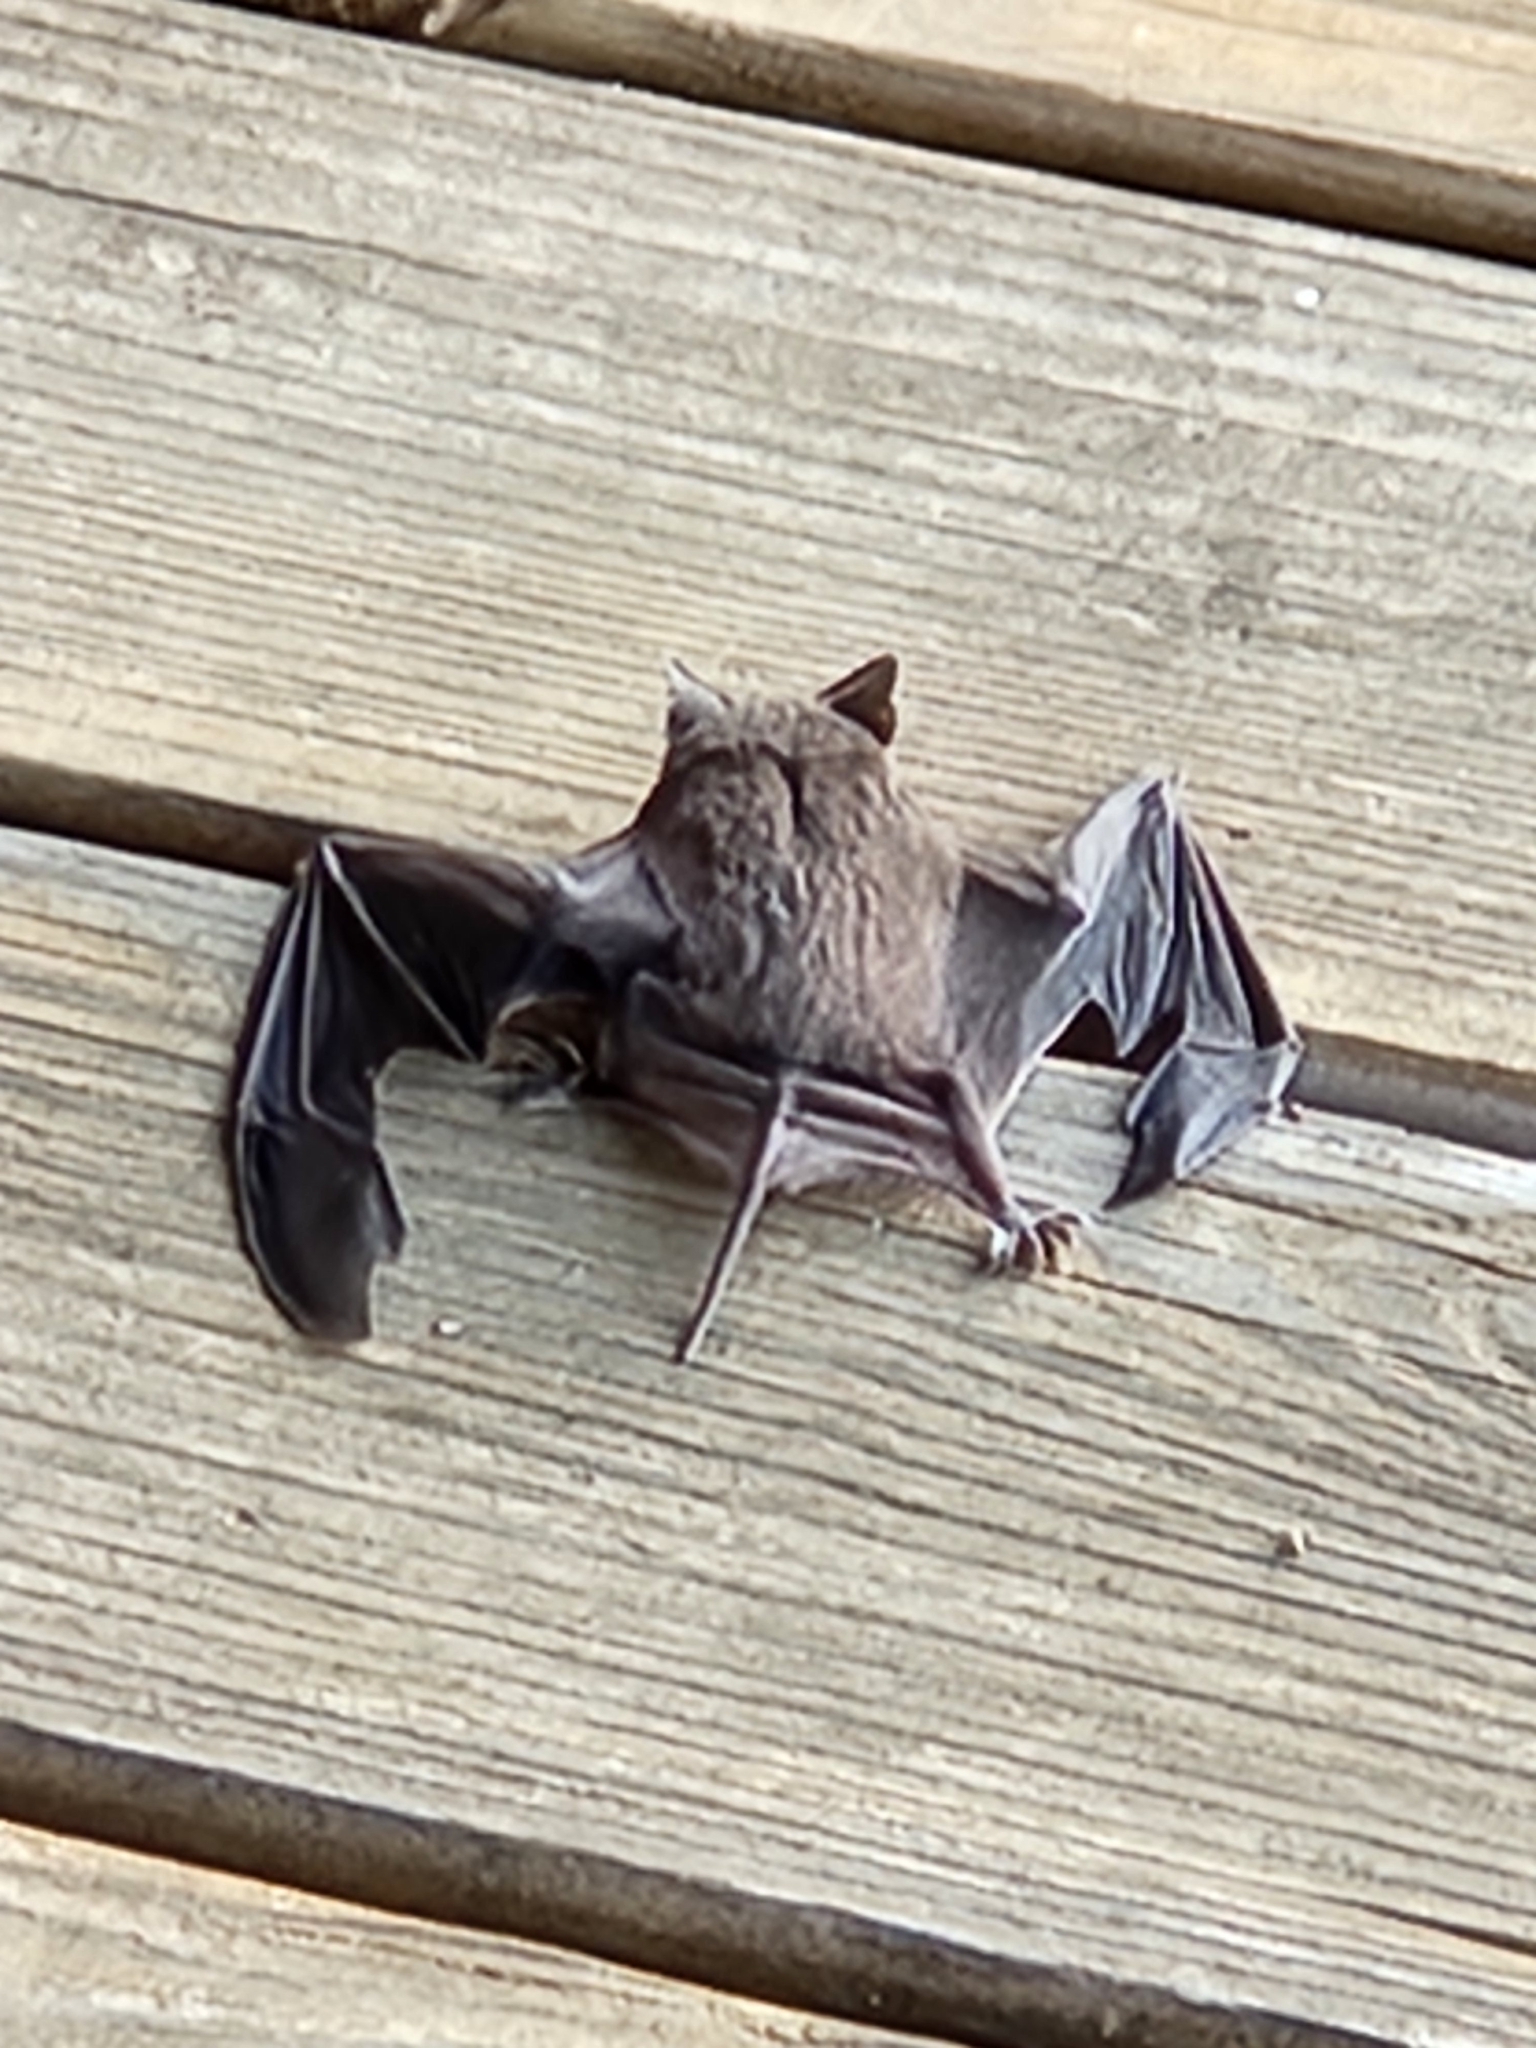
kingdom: Animalia
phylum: Chordata
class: Mammalia
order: Chiroptera
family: Molossidae
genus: Tadarida
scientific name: Tadarida brasiliensis
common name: Mexican free-tailed bat
